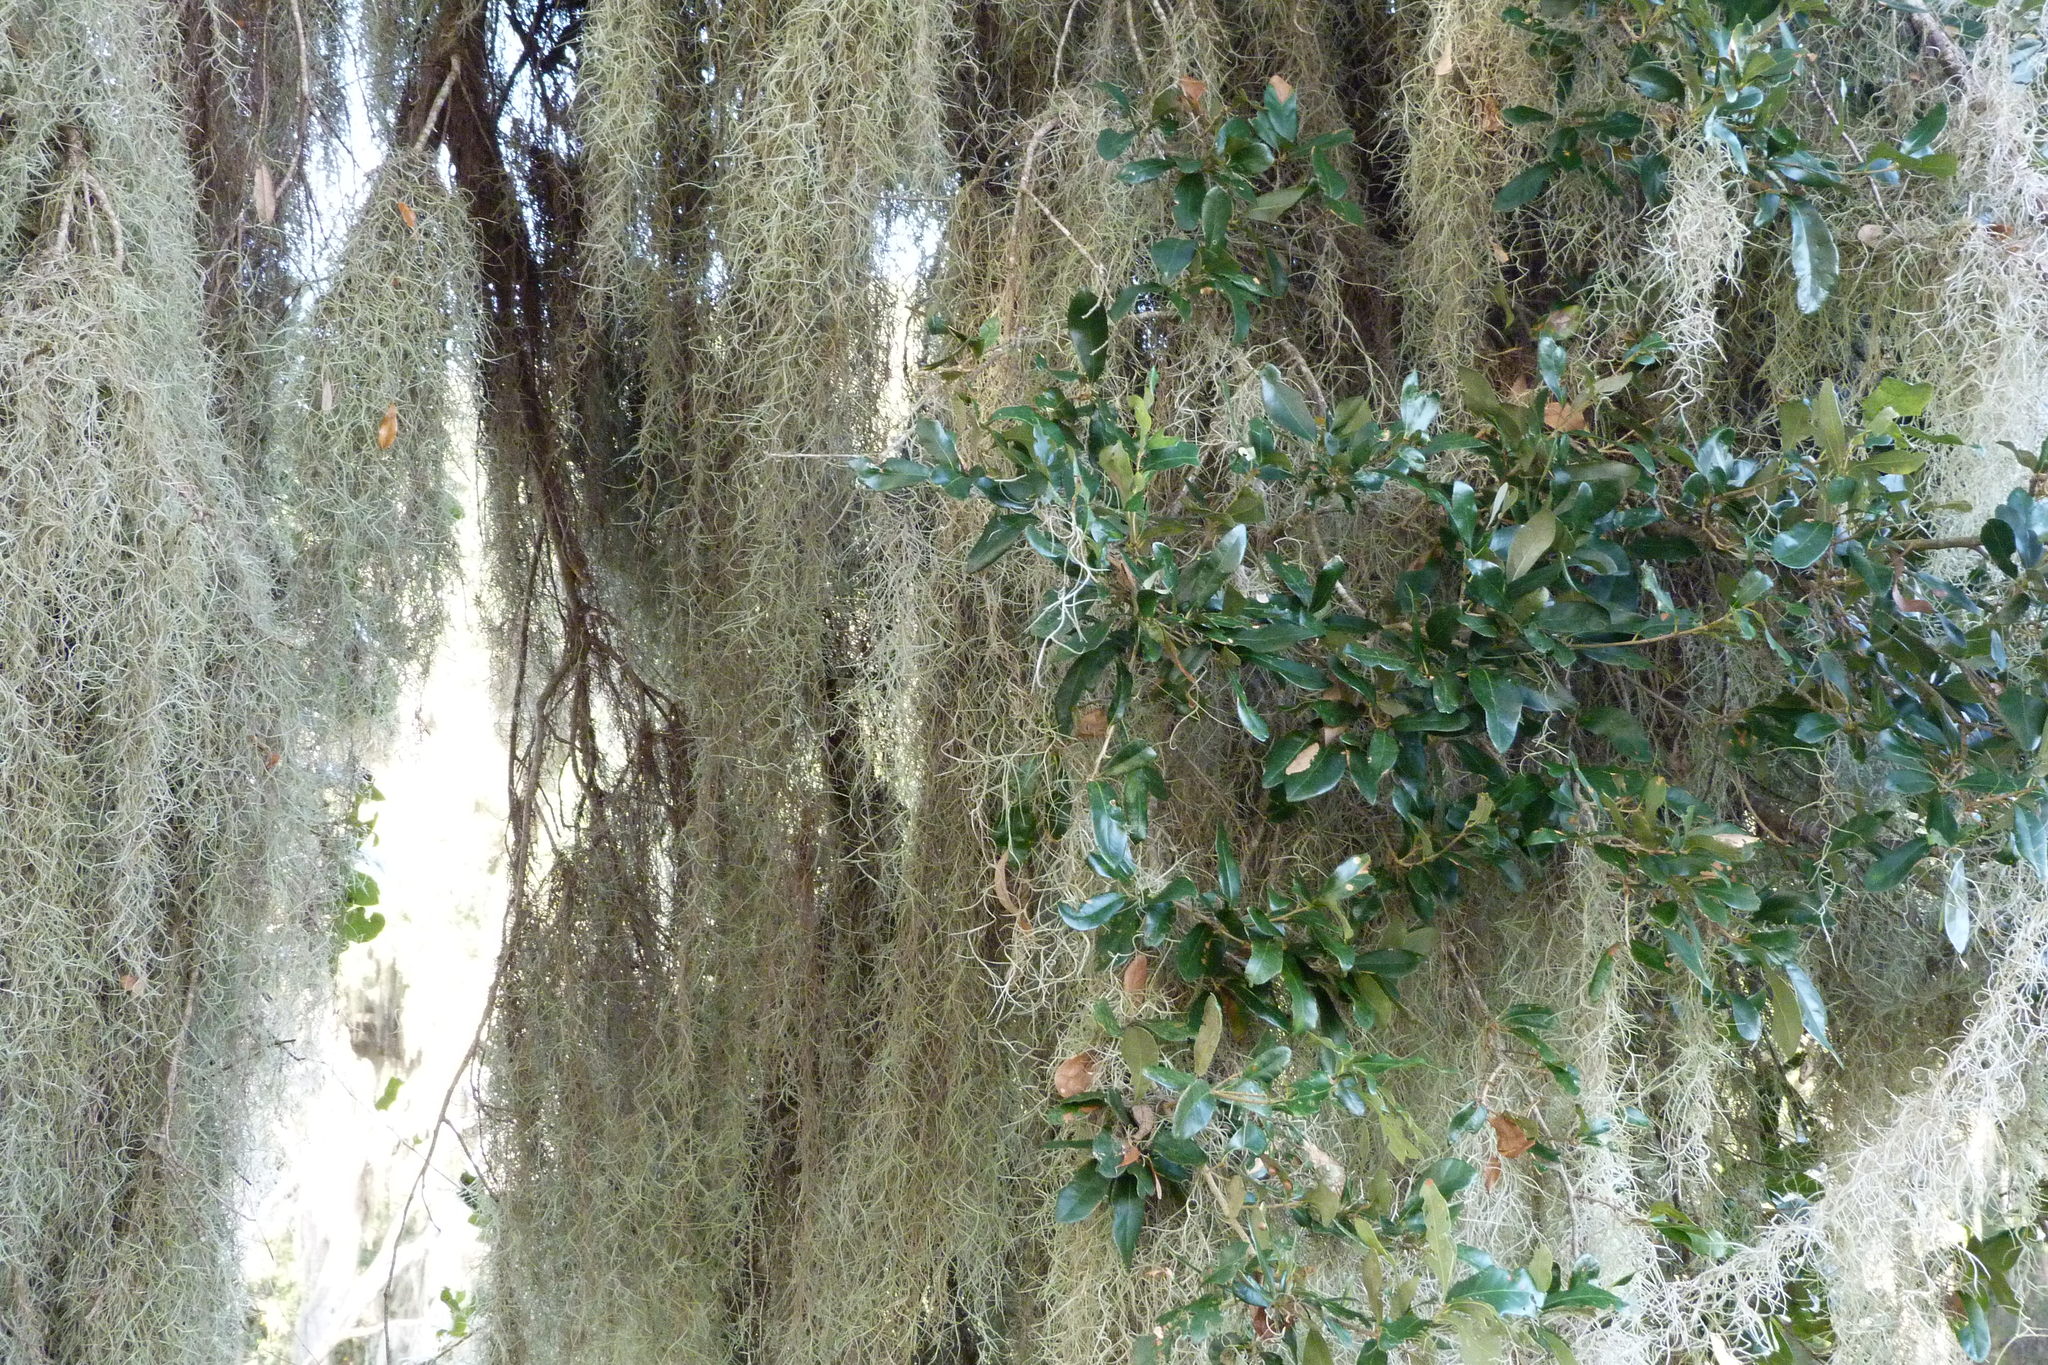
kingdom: Plantae
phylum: Tracheophyta
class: Liliopsida
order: Poales
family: Bromeliaceae
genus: Tillandsia
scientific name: Tillandsia usneoides
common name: Spanish moss
